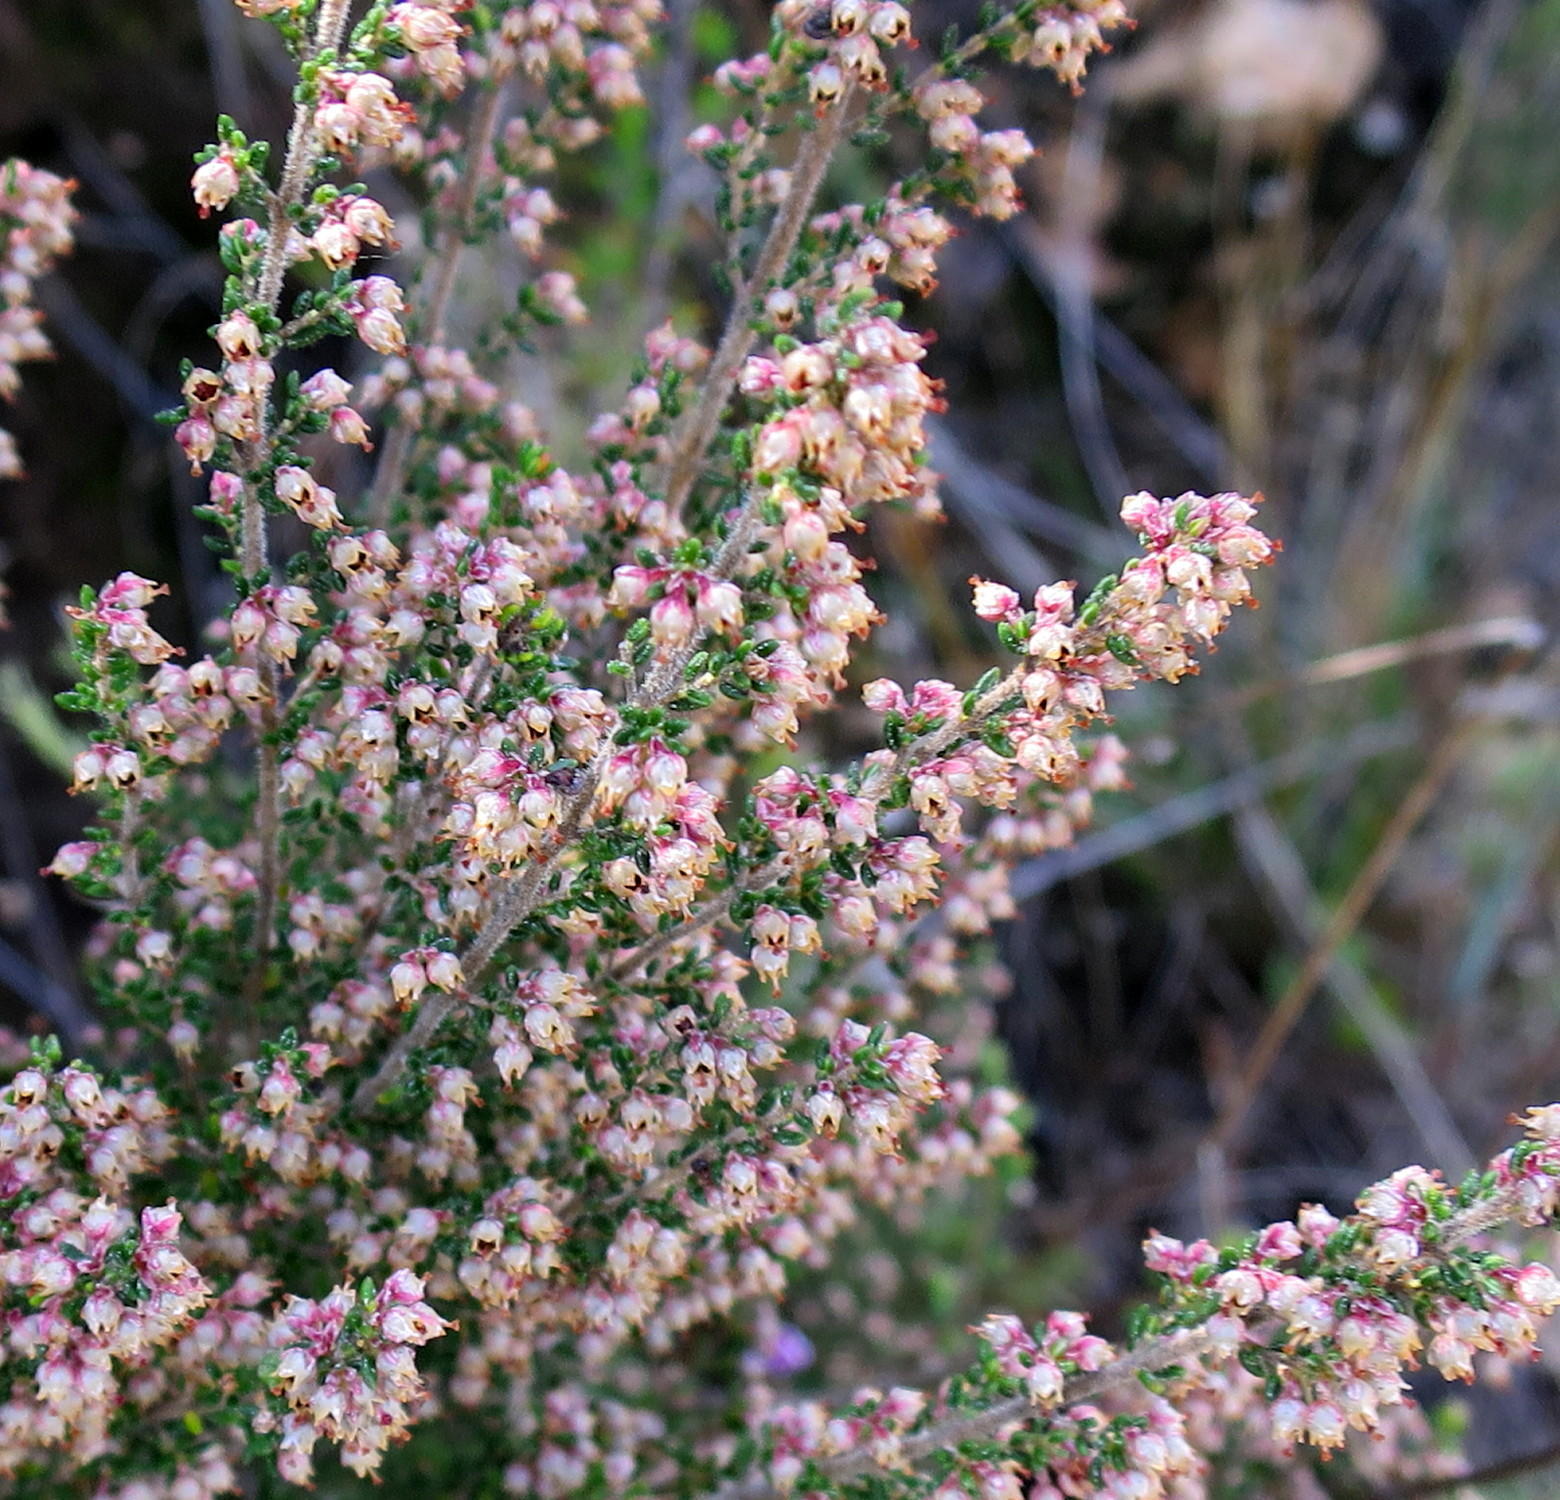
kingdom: Plantae
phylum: Tracheophyta
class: Magnoliopsida
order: Ericales
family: Ericaceae
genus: Erica
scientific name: Erica hispidula
